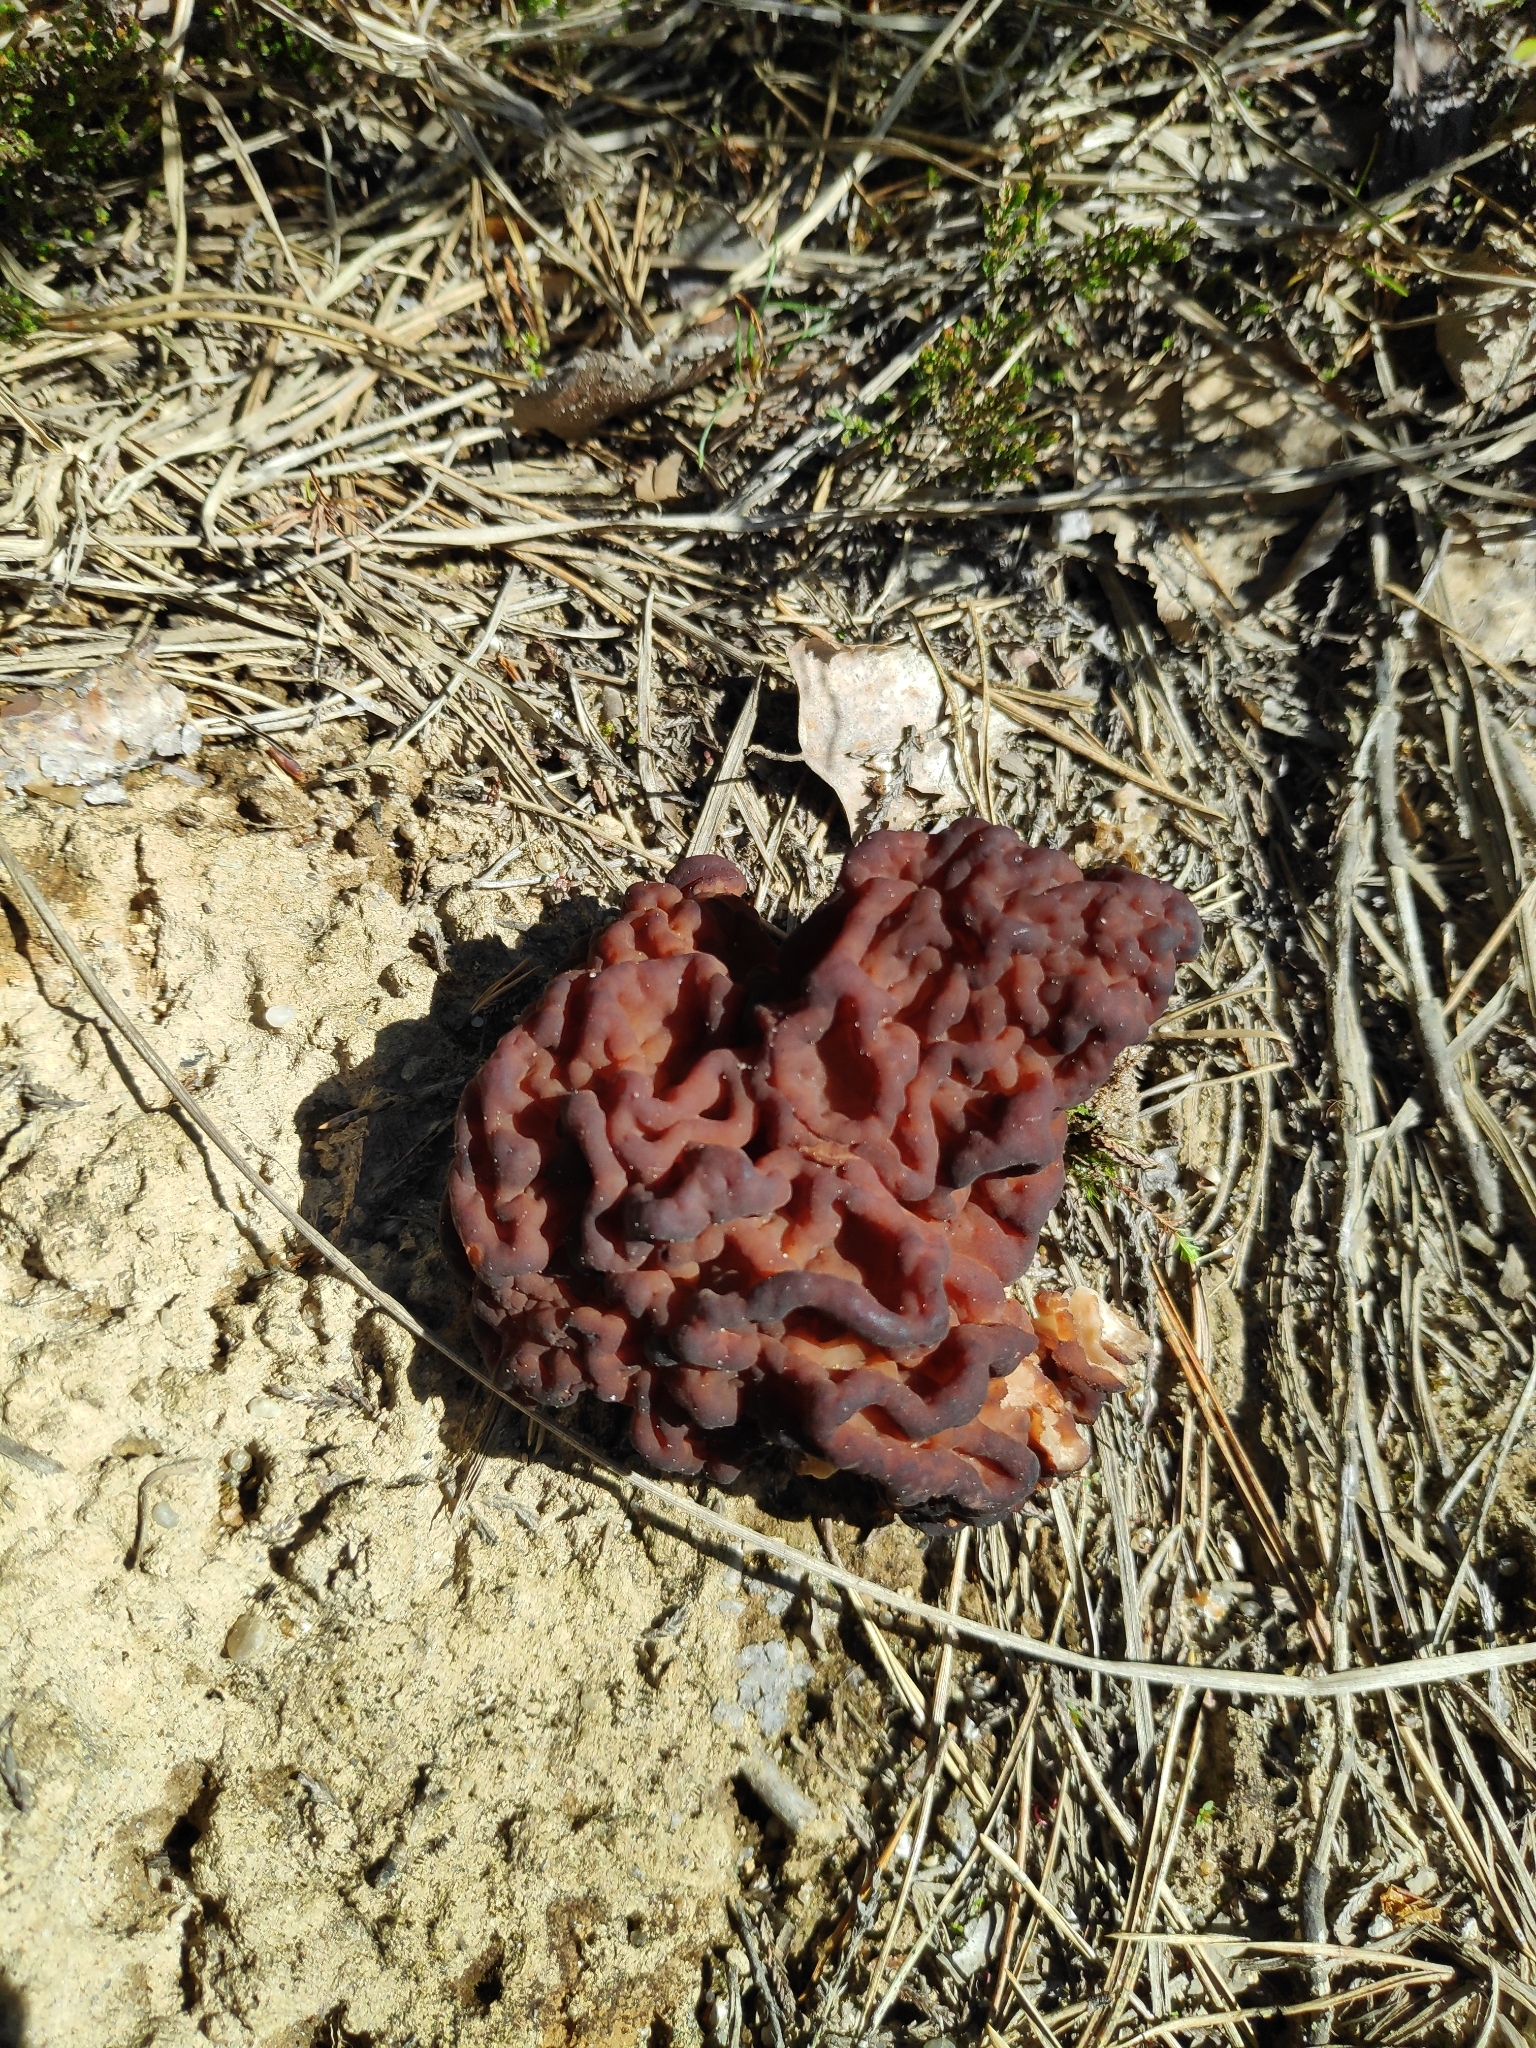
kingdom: Fungi
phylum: Ascomycota
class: Pezizomycetes
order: Pezizales
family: Discinaceae
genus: Gyromitra
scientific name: Gyromitra esculenta
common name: False morel
